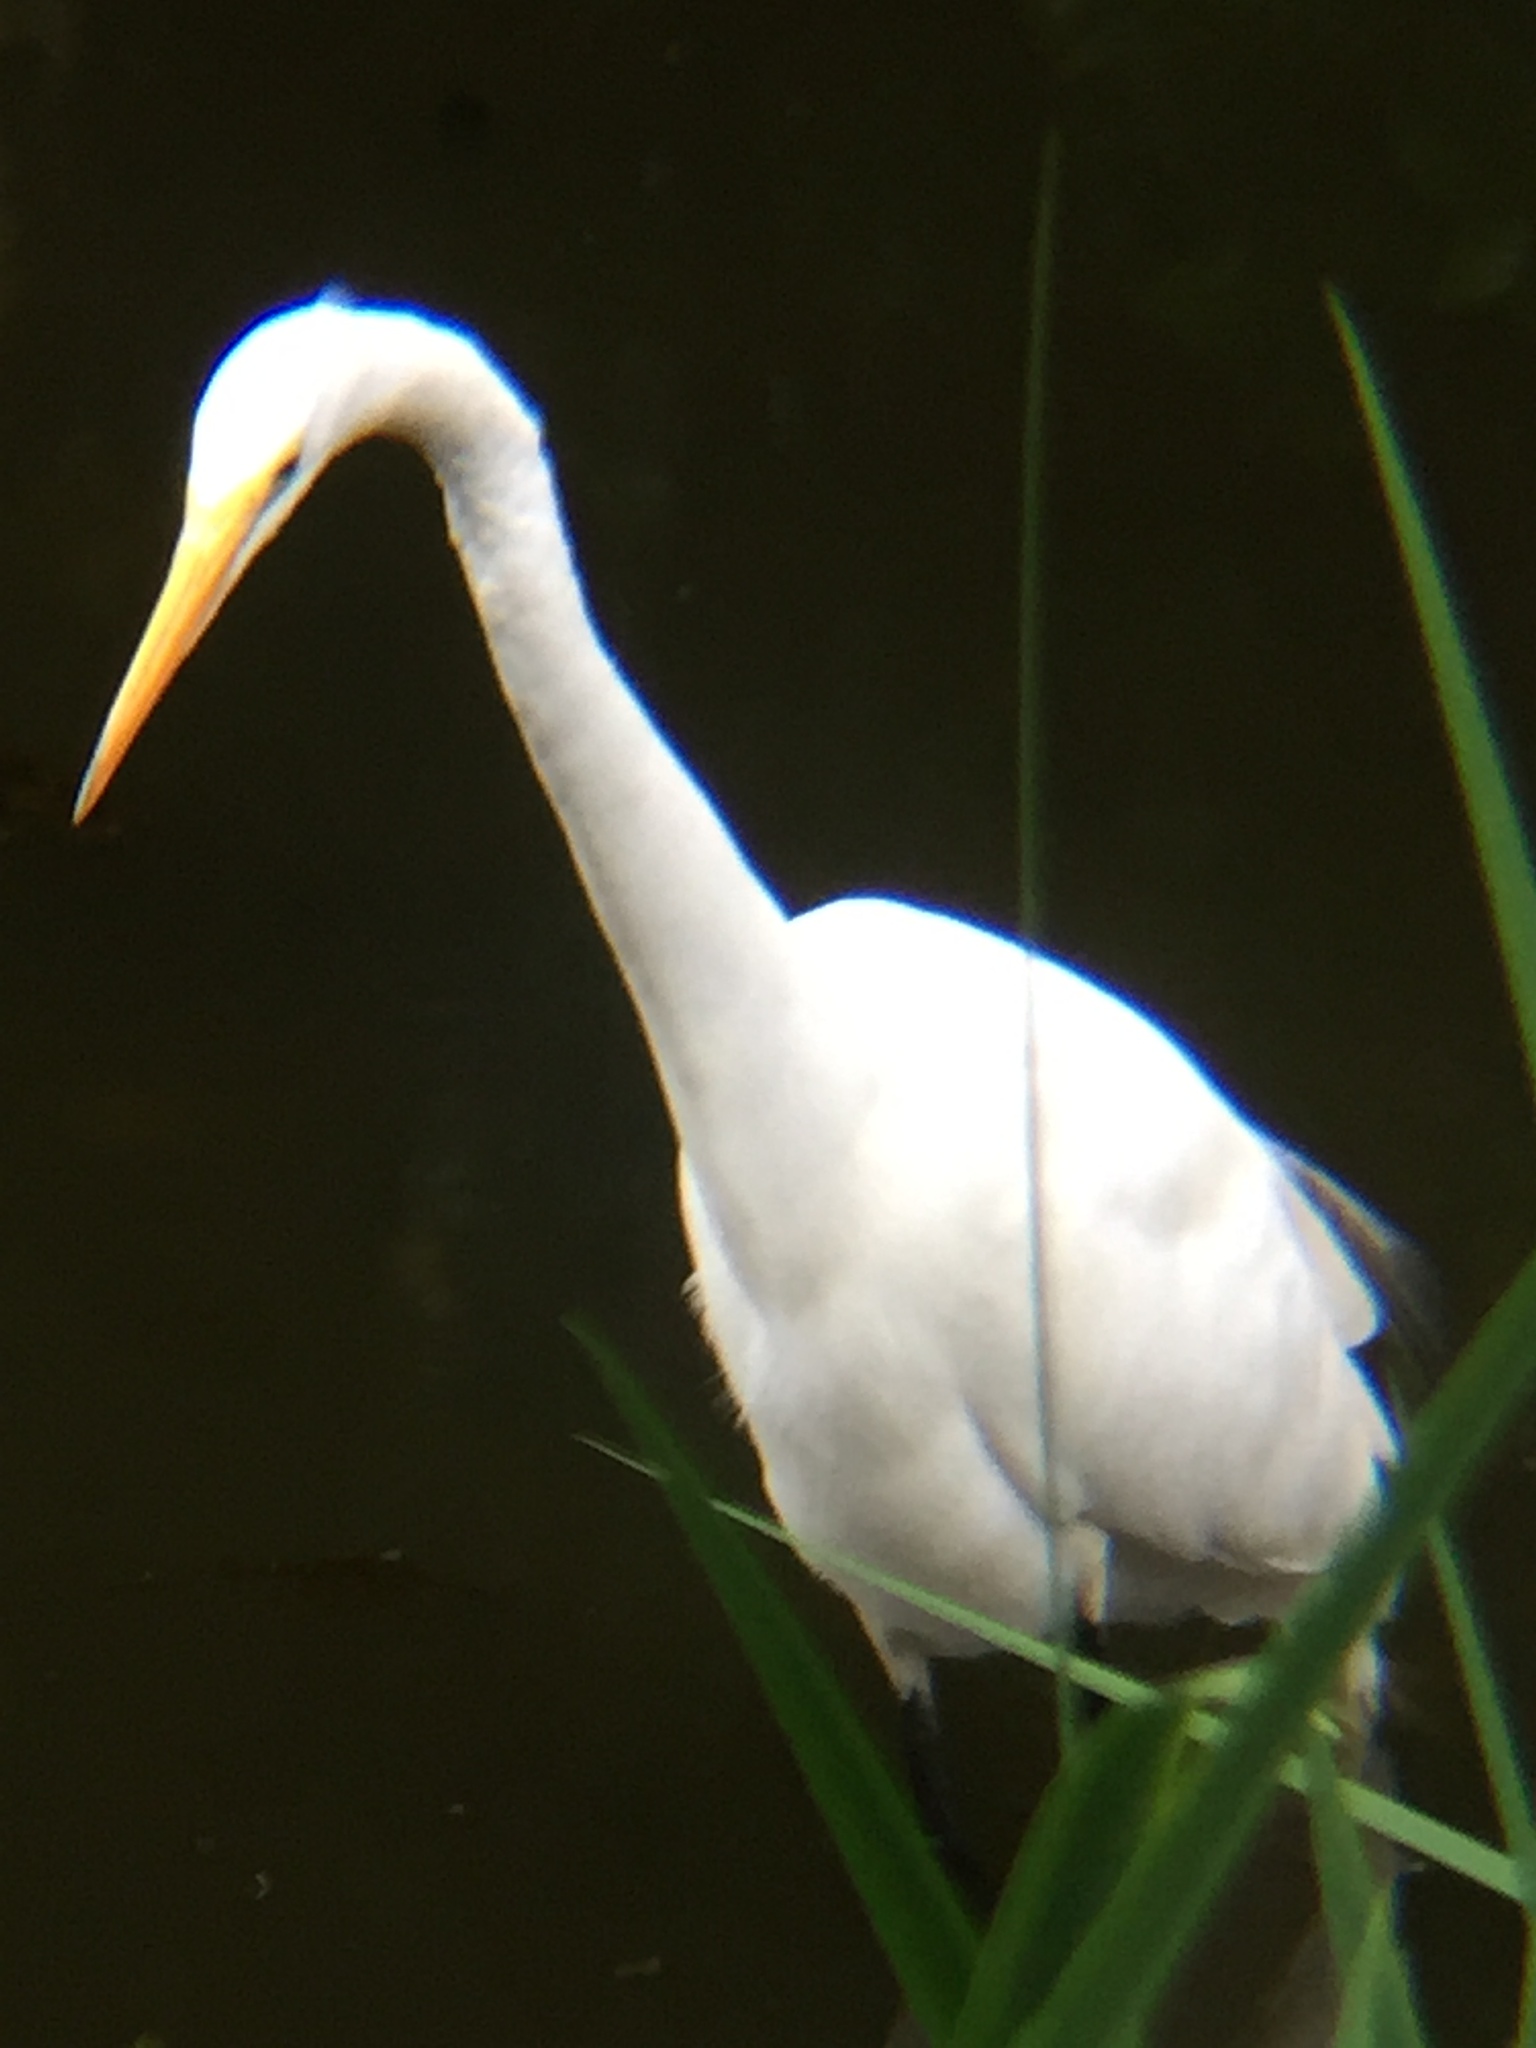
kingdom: Animalia
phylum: Chordata
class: Aves
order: Pelecaniformes
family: Ardeidae
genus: Ardea
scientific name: Ardea alba
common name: Great egret
